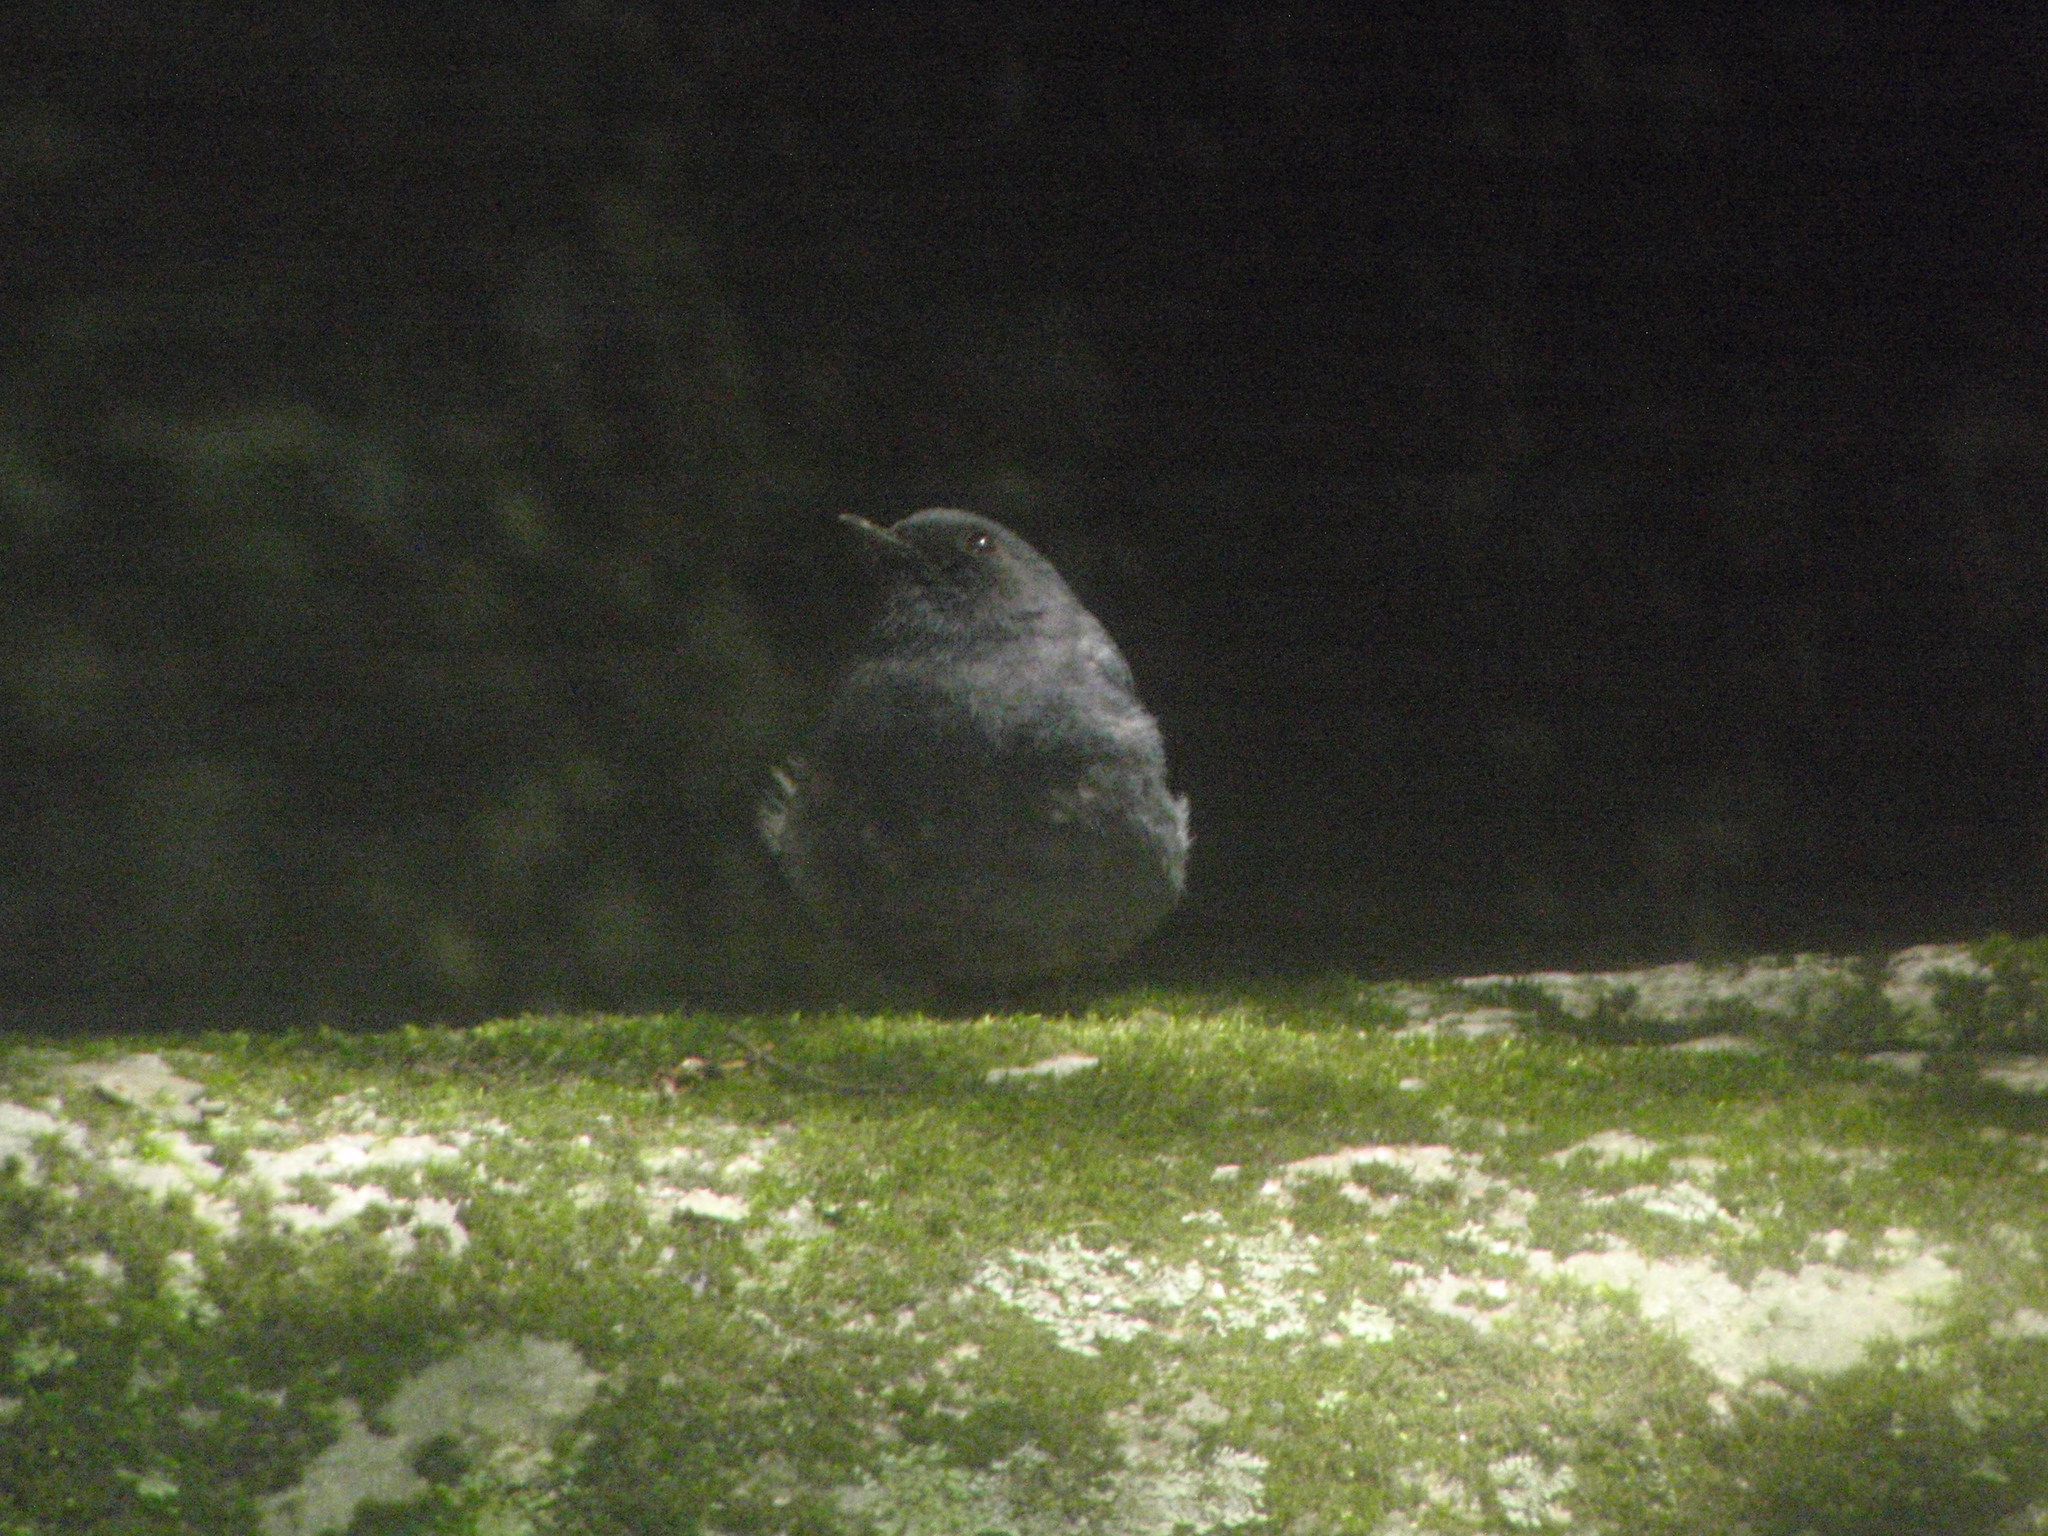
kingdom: Animalia
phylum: Chordata
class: Aves
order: Passeriformes
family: Muscicapidae
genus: Phoenicurus
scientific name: Phoenicurus fuliginosus
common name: Plumbeous water redstart
